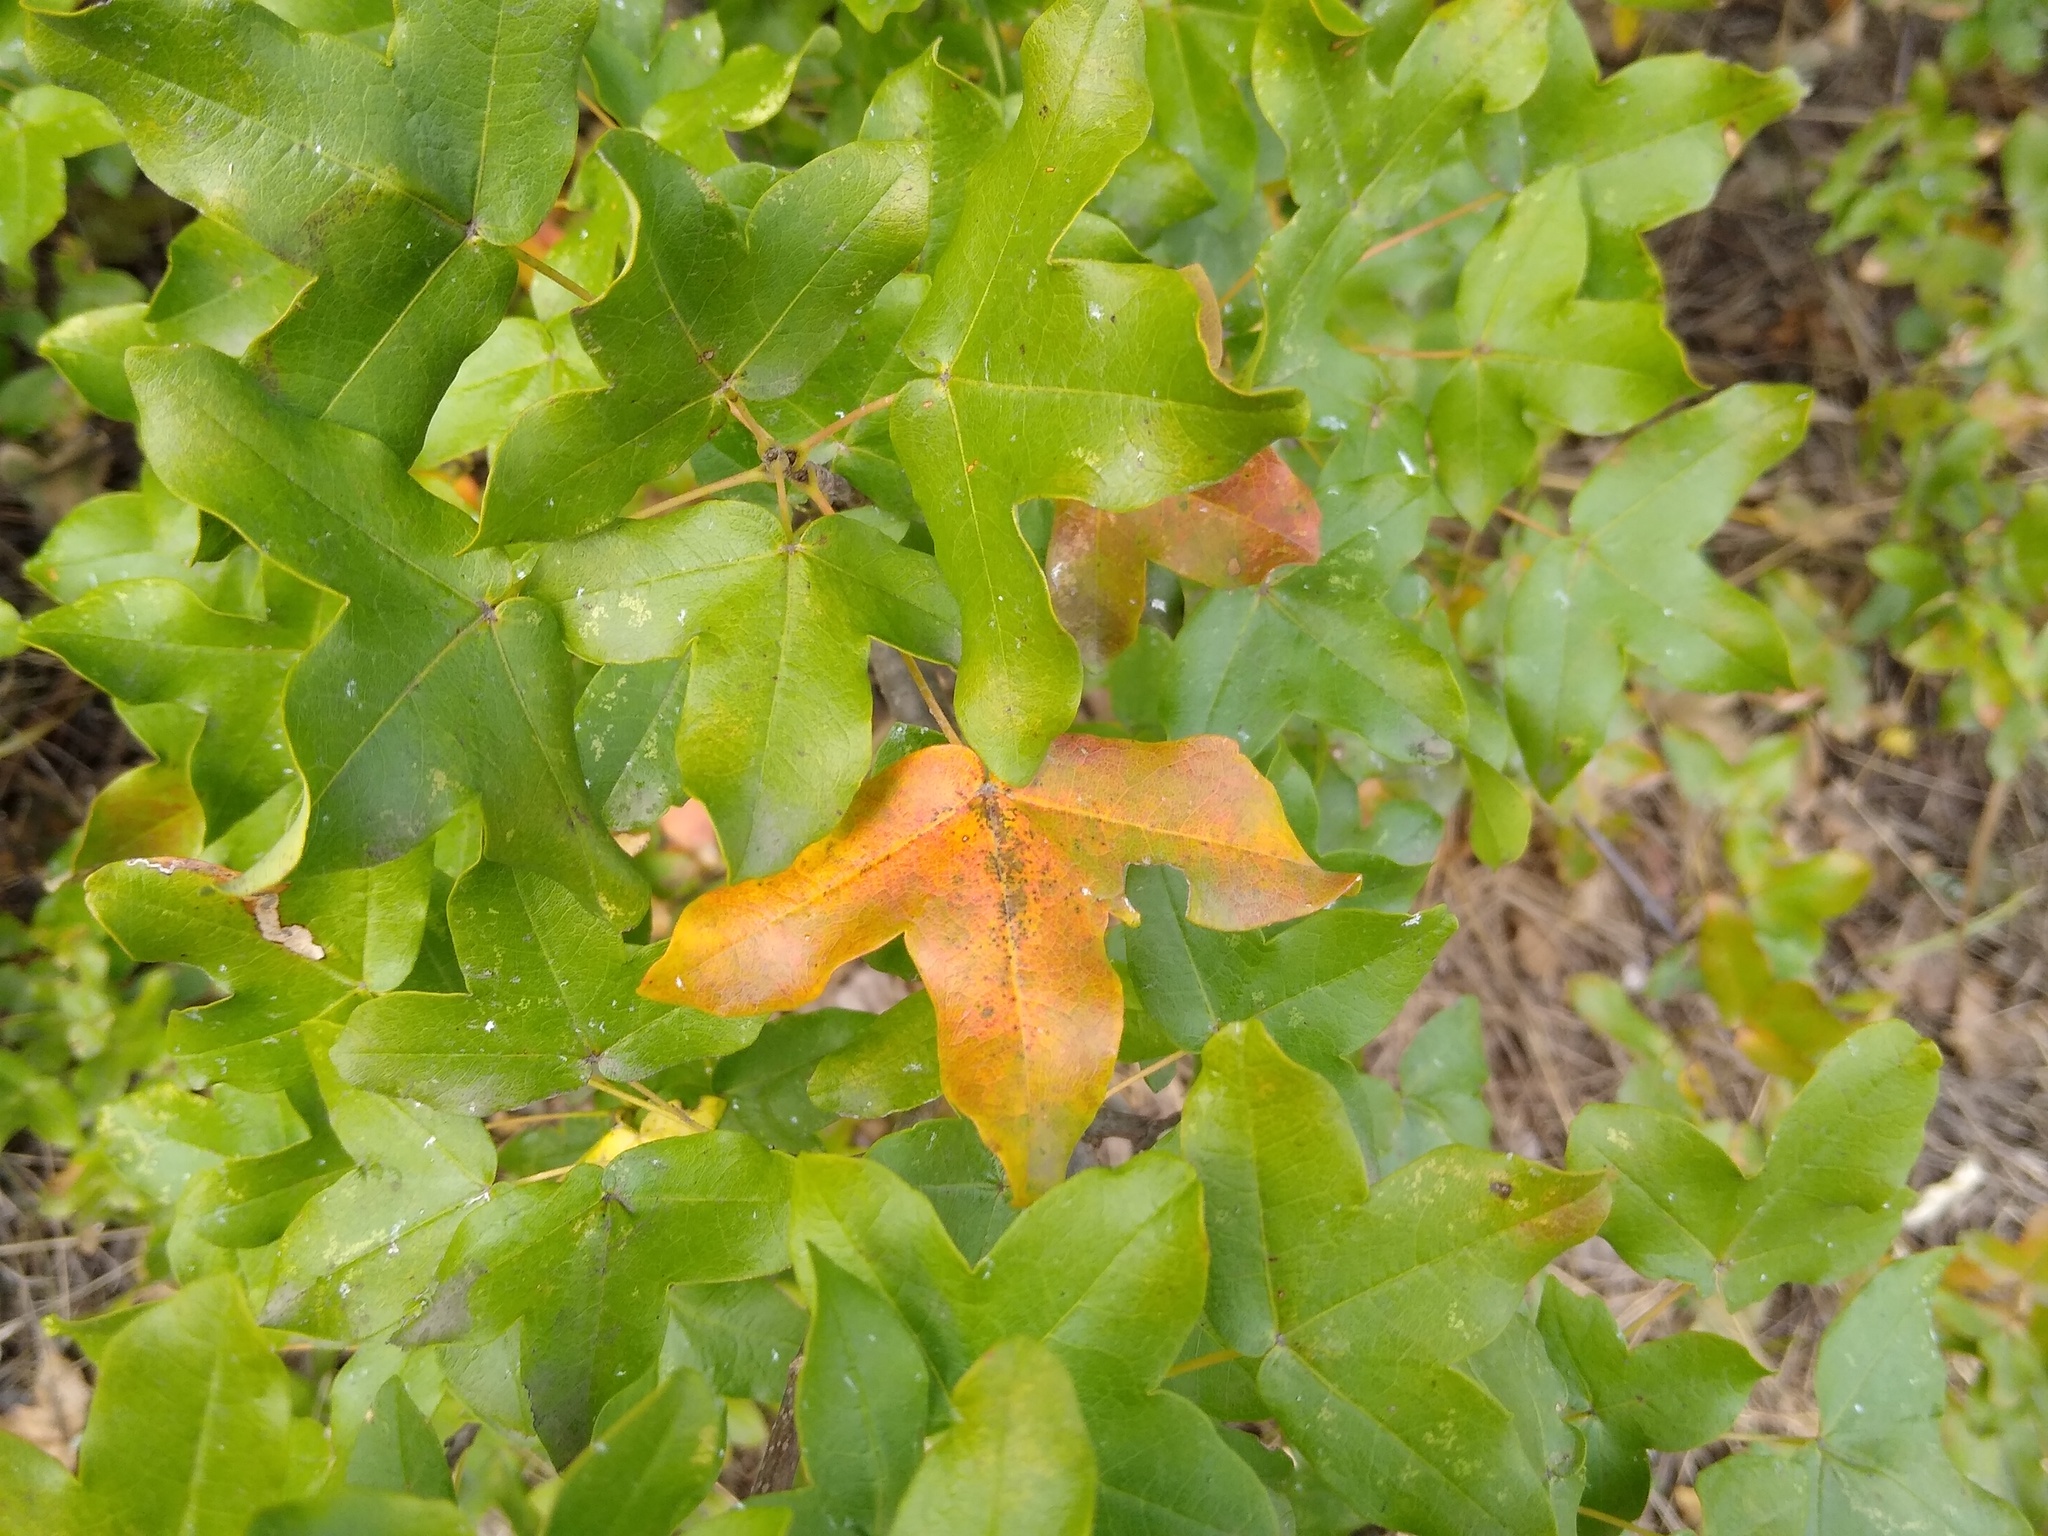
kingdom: Plantae
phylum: Tracheophyta
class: Magnoliopsida
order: Sapindales
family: Sapindaceae
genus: Acer
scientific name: Acer monspessulanum
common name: Montpellier maple
